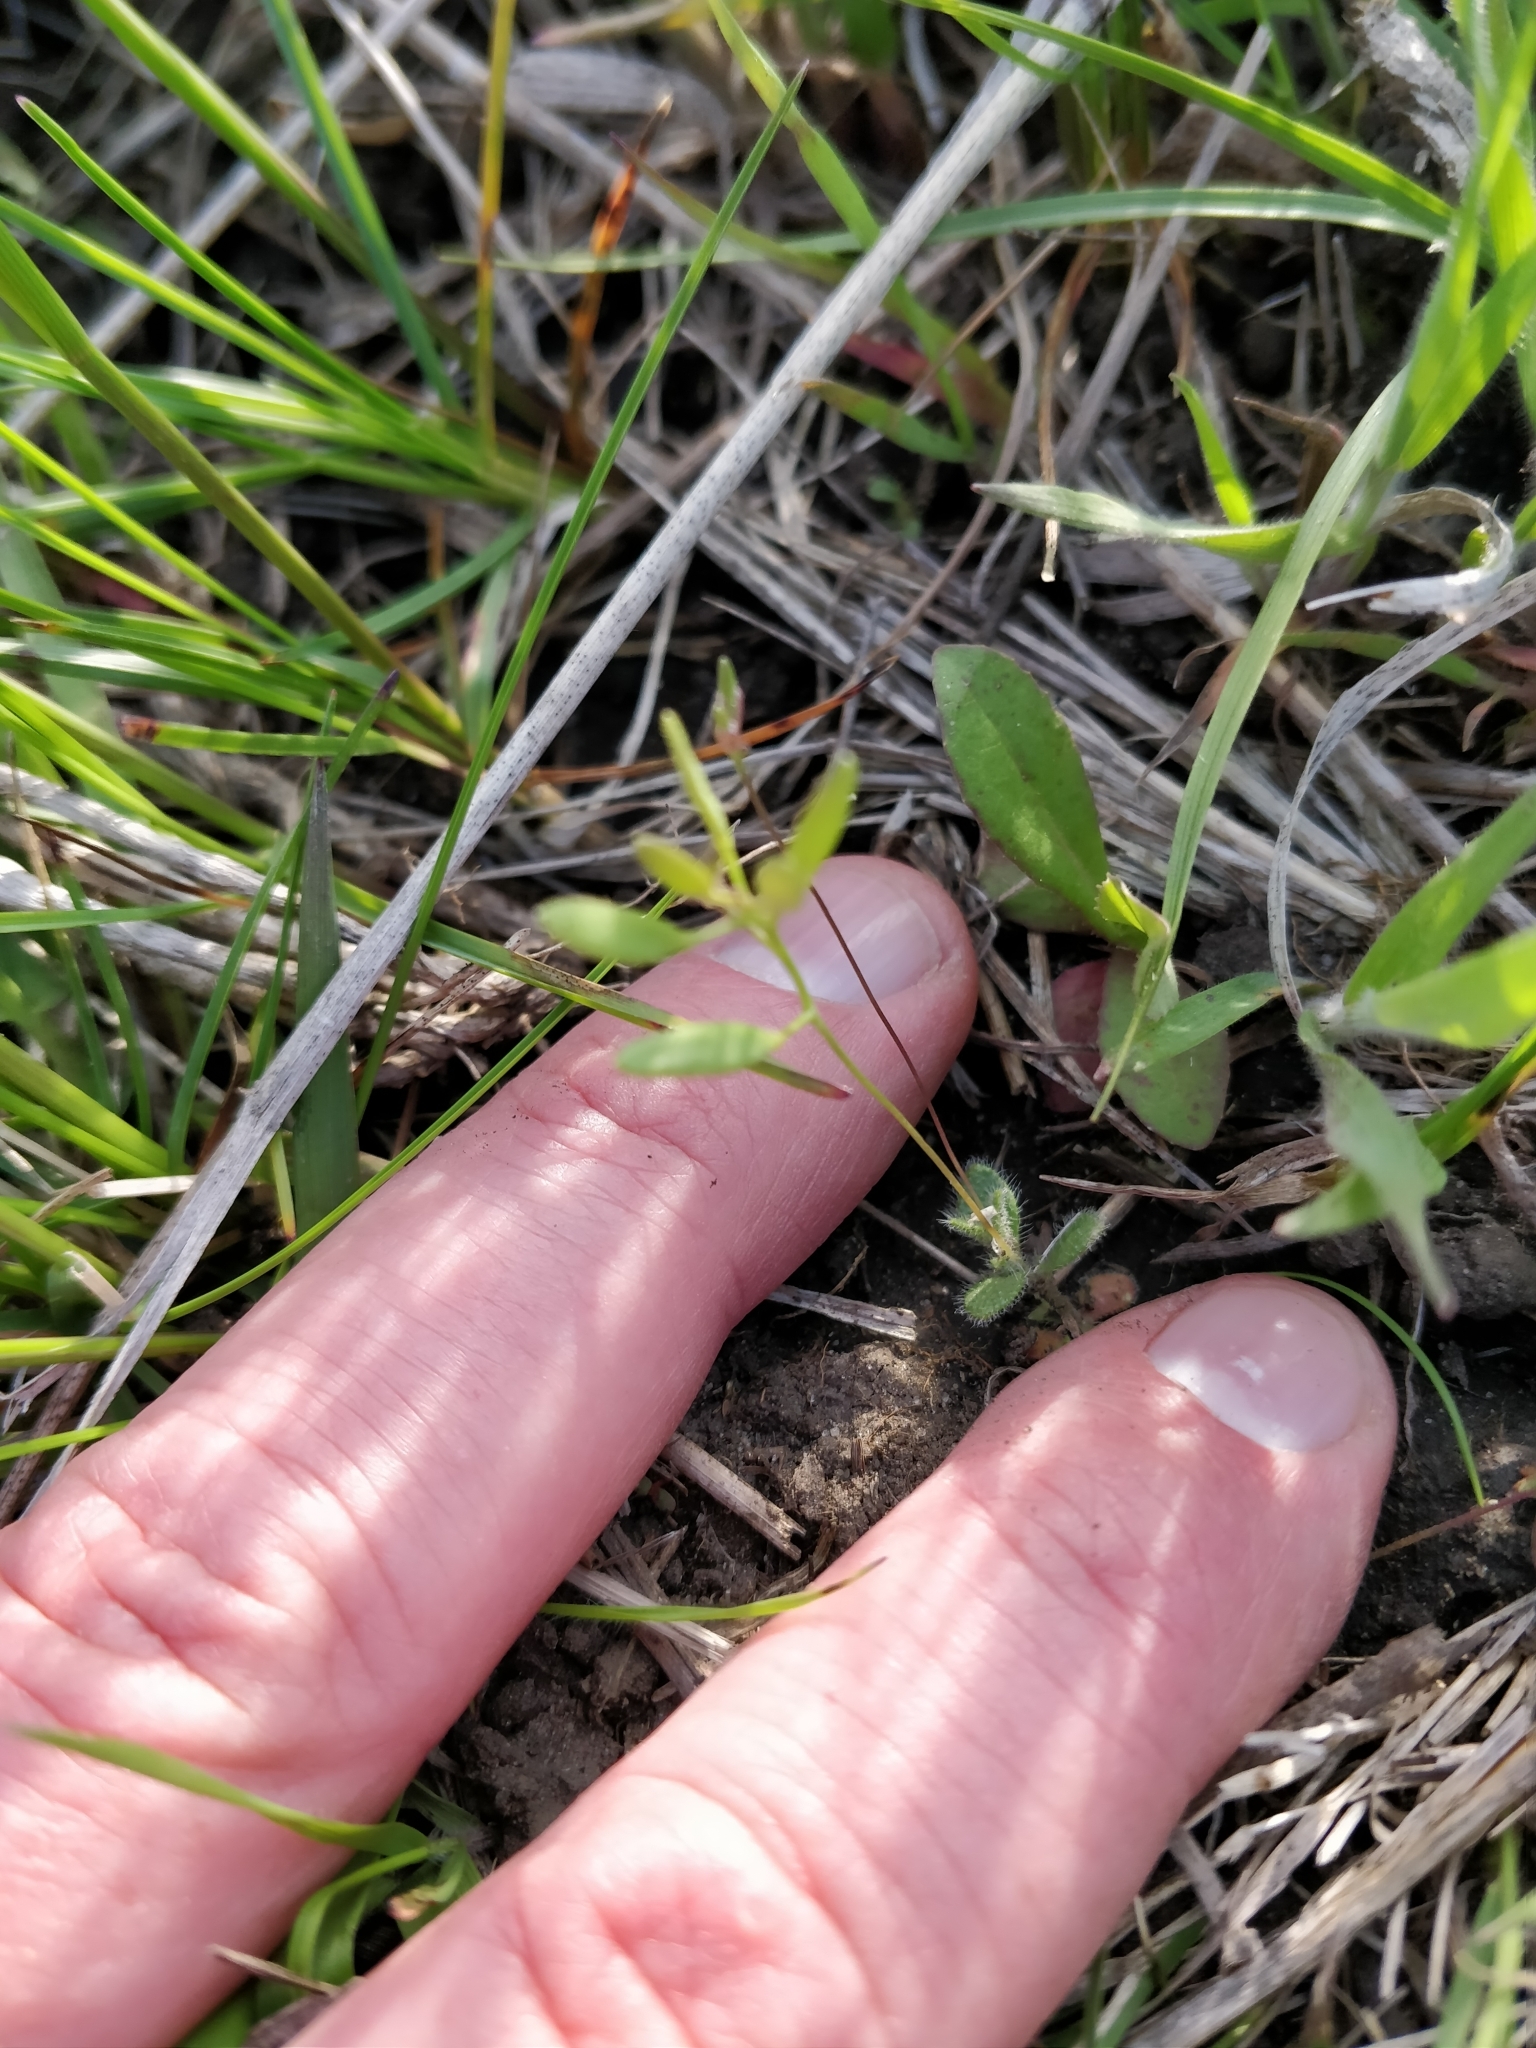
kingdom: Plantae
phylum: Tracheophyta
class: Magnoliopsida
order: Brassicales
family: Brassicaceae
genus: Tomostima
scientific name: Tomostima reptans
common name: Carolina draba
